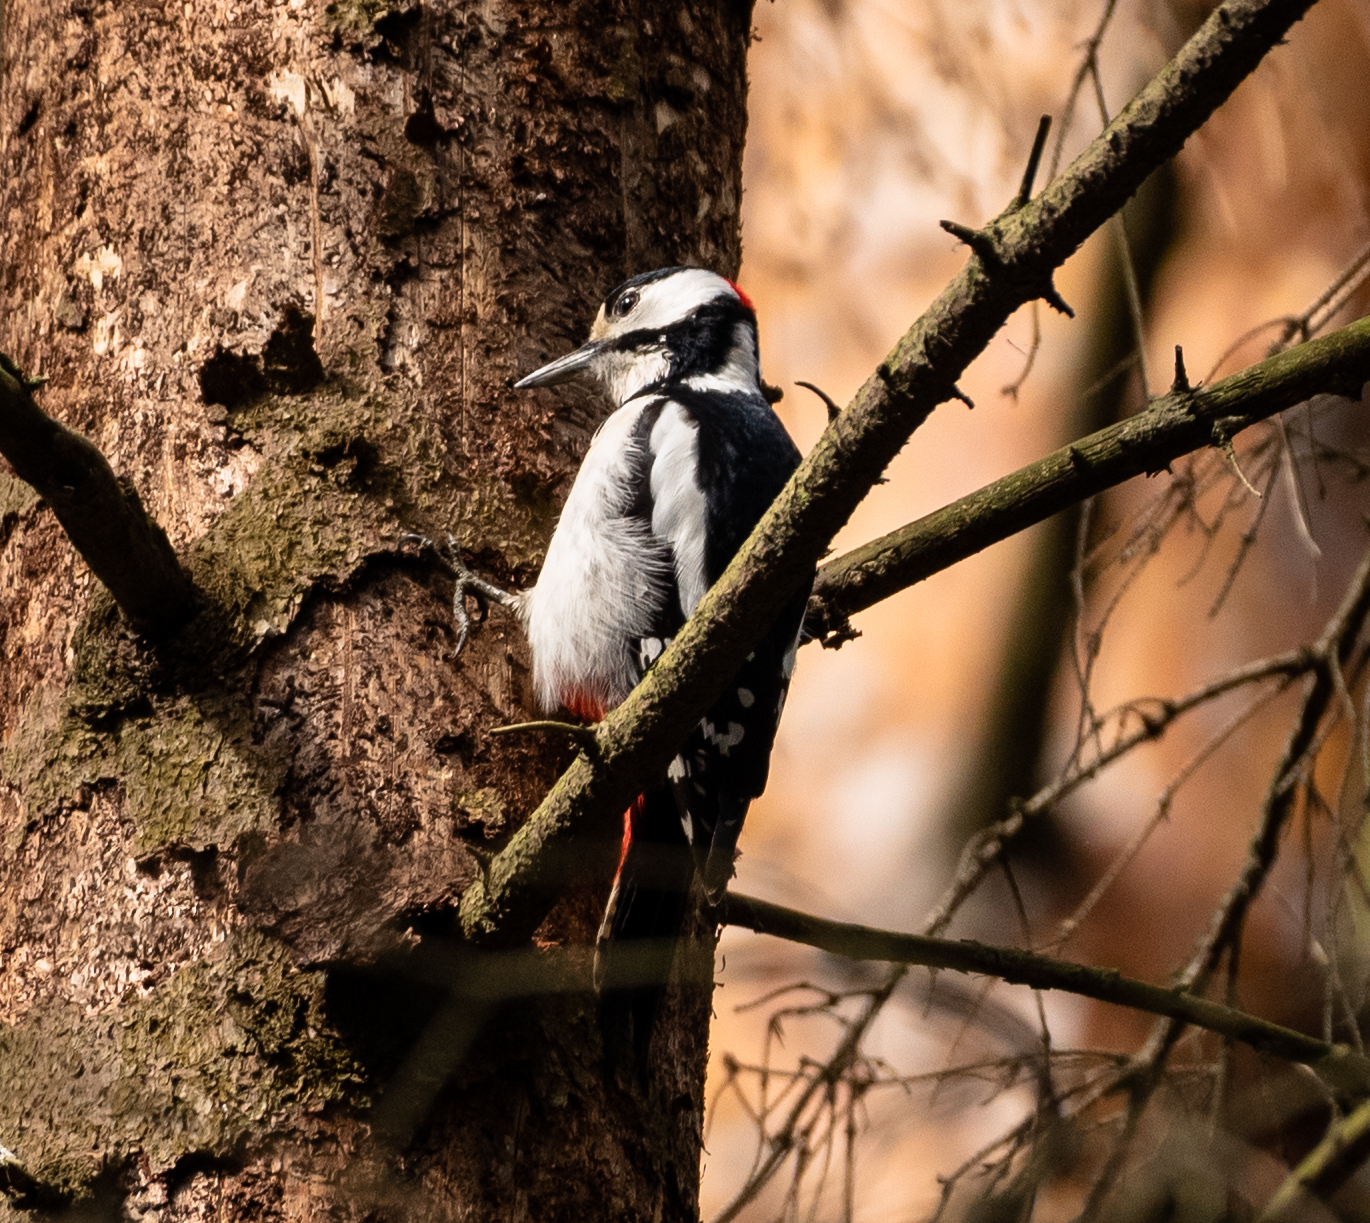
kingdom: Animalia
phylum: Chordata
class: Aves
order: Piciformes
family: Picidae
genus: Dendrocopos
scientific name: Dendrocopos major
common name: Great spotted woodpecker
